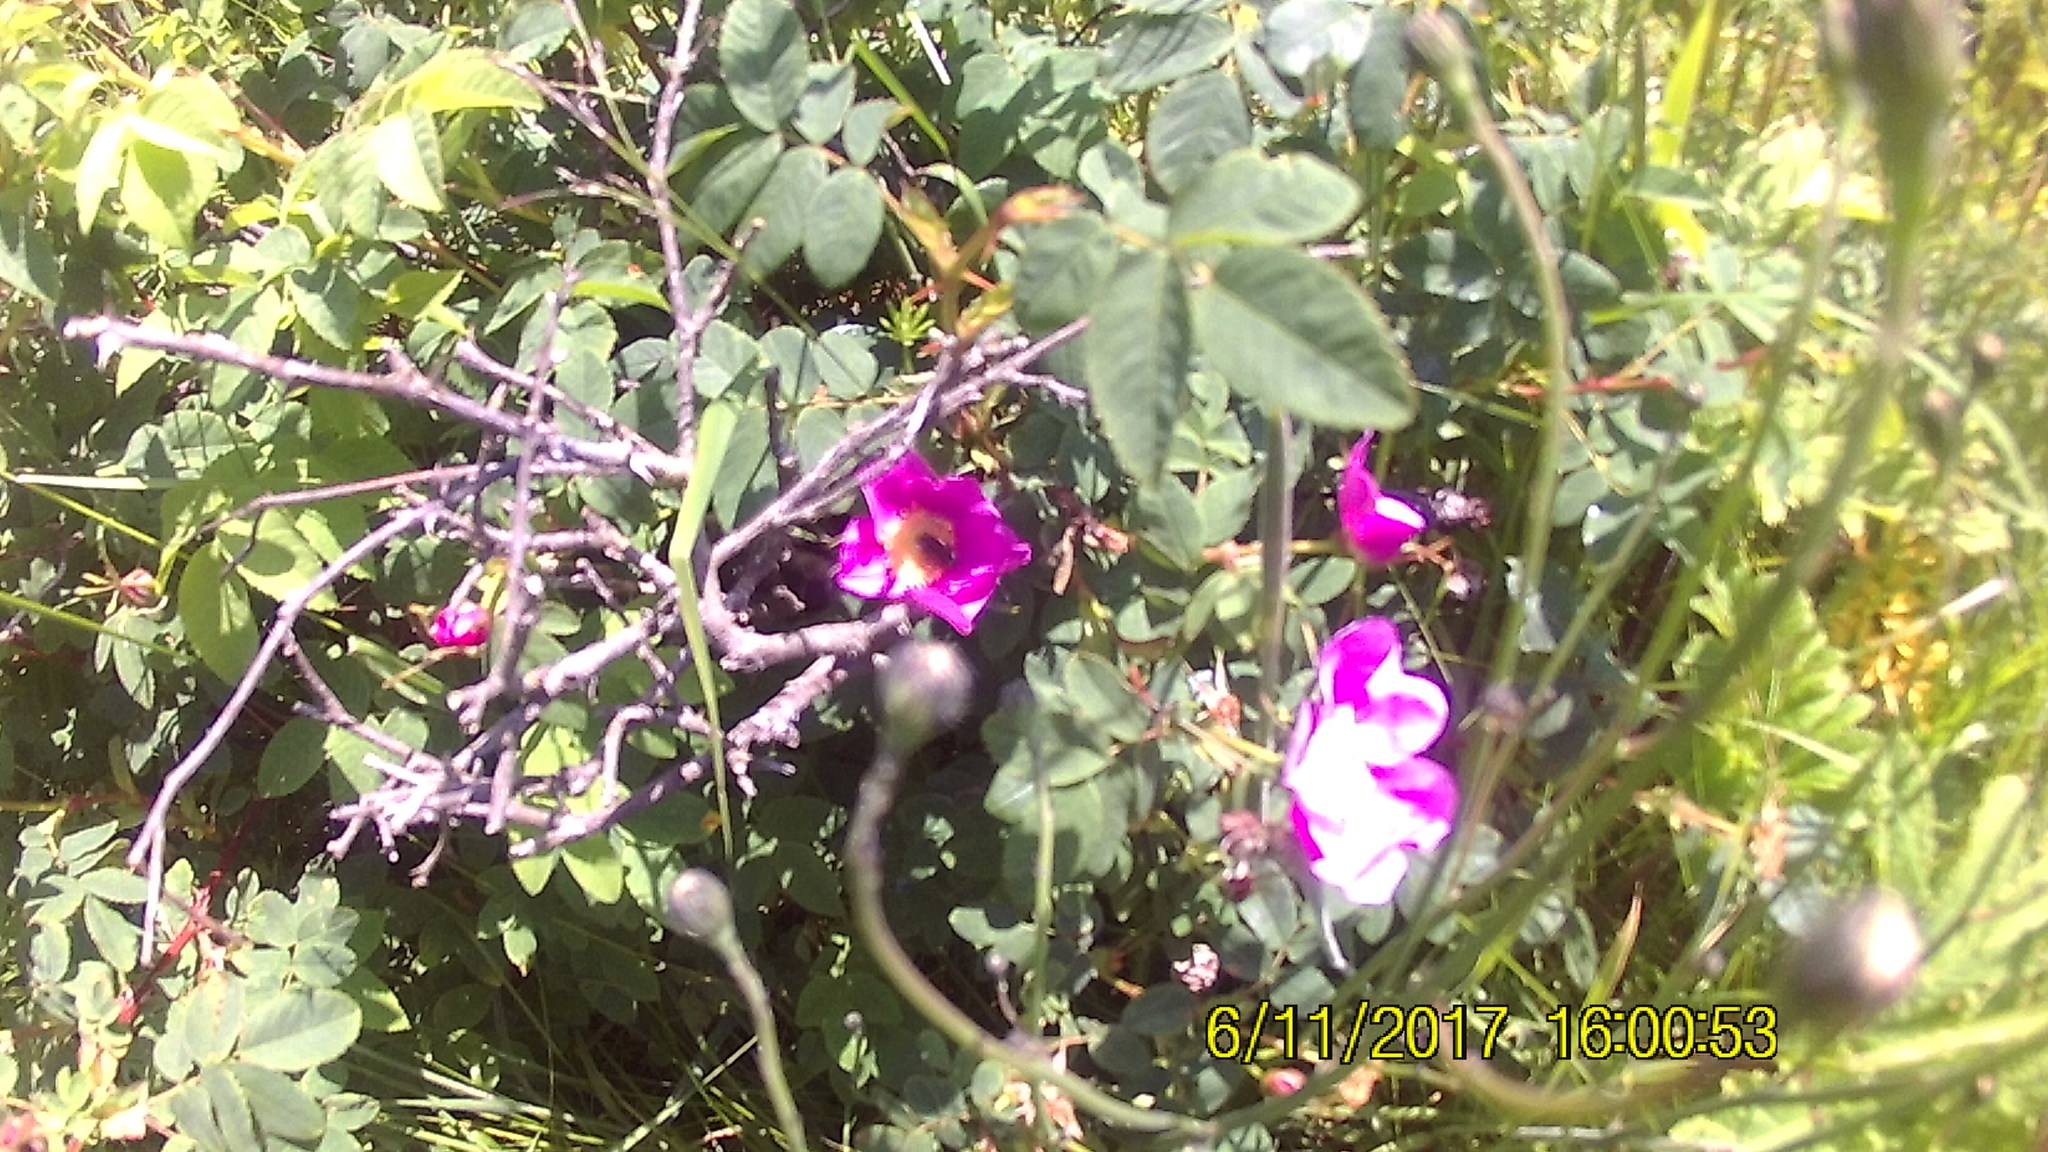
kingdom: Plantae
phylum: Tracheophyta
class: Magnoliopsida
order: Rosales
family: Rosaceae
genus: Rosa
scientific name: Rosa nutkana
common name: Nootka rose
